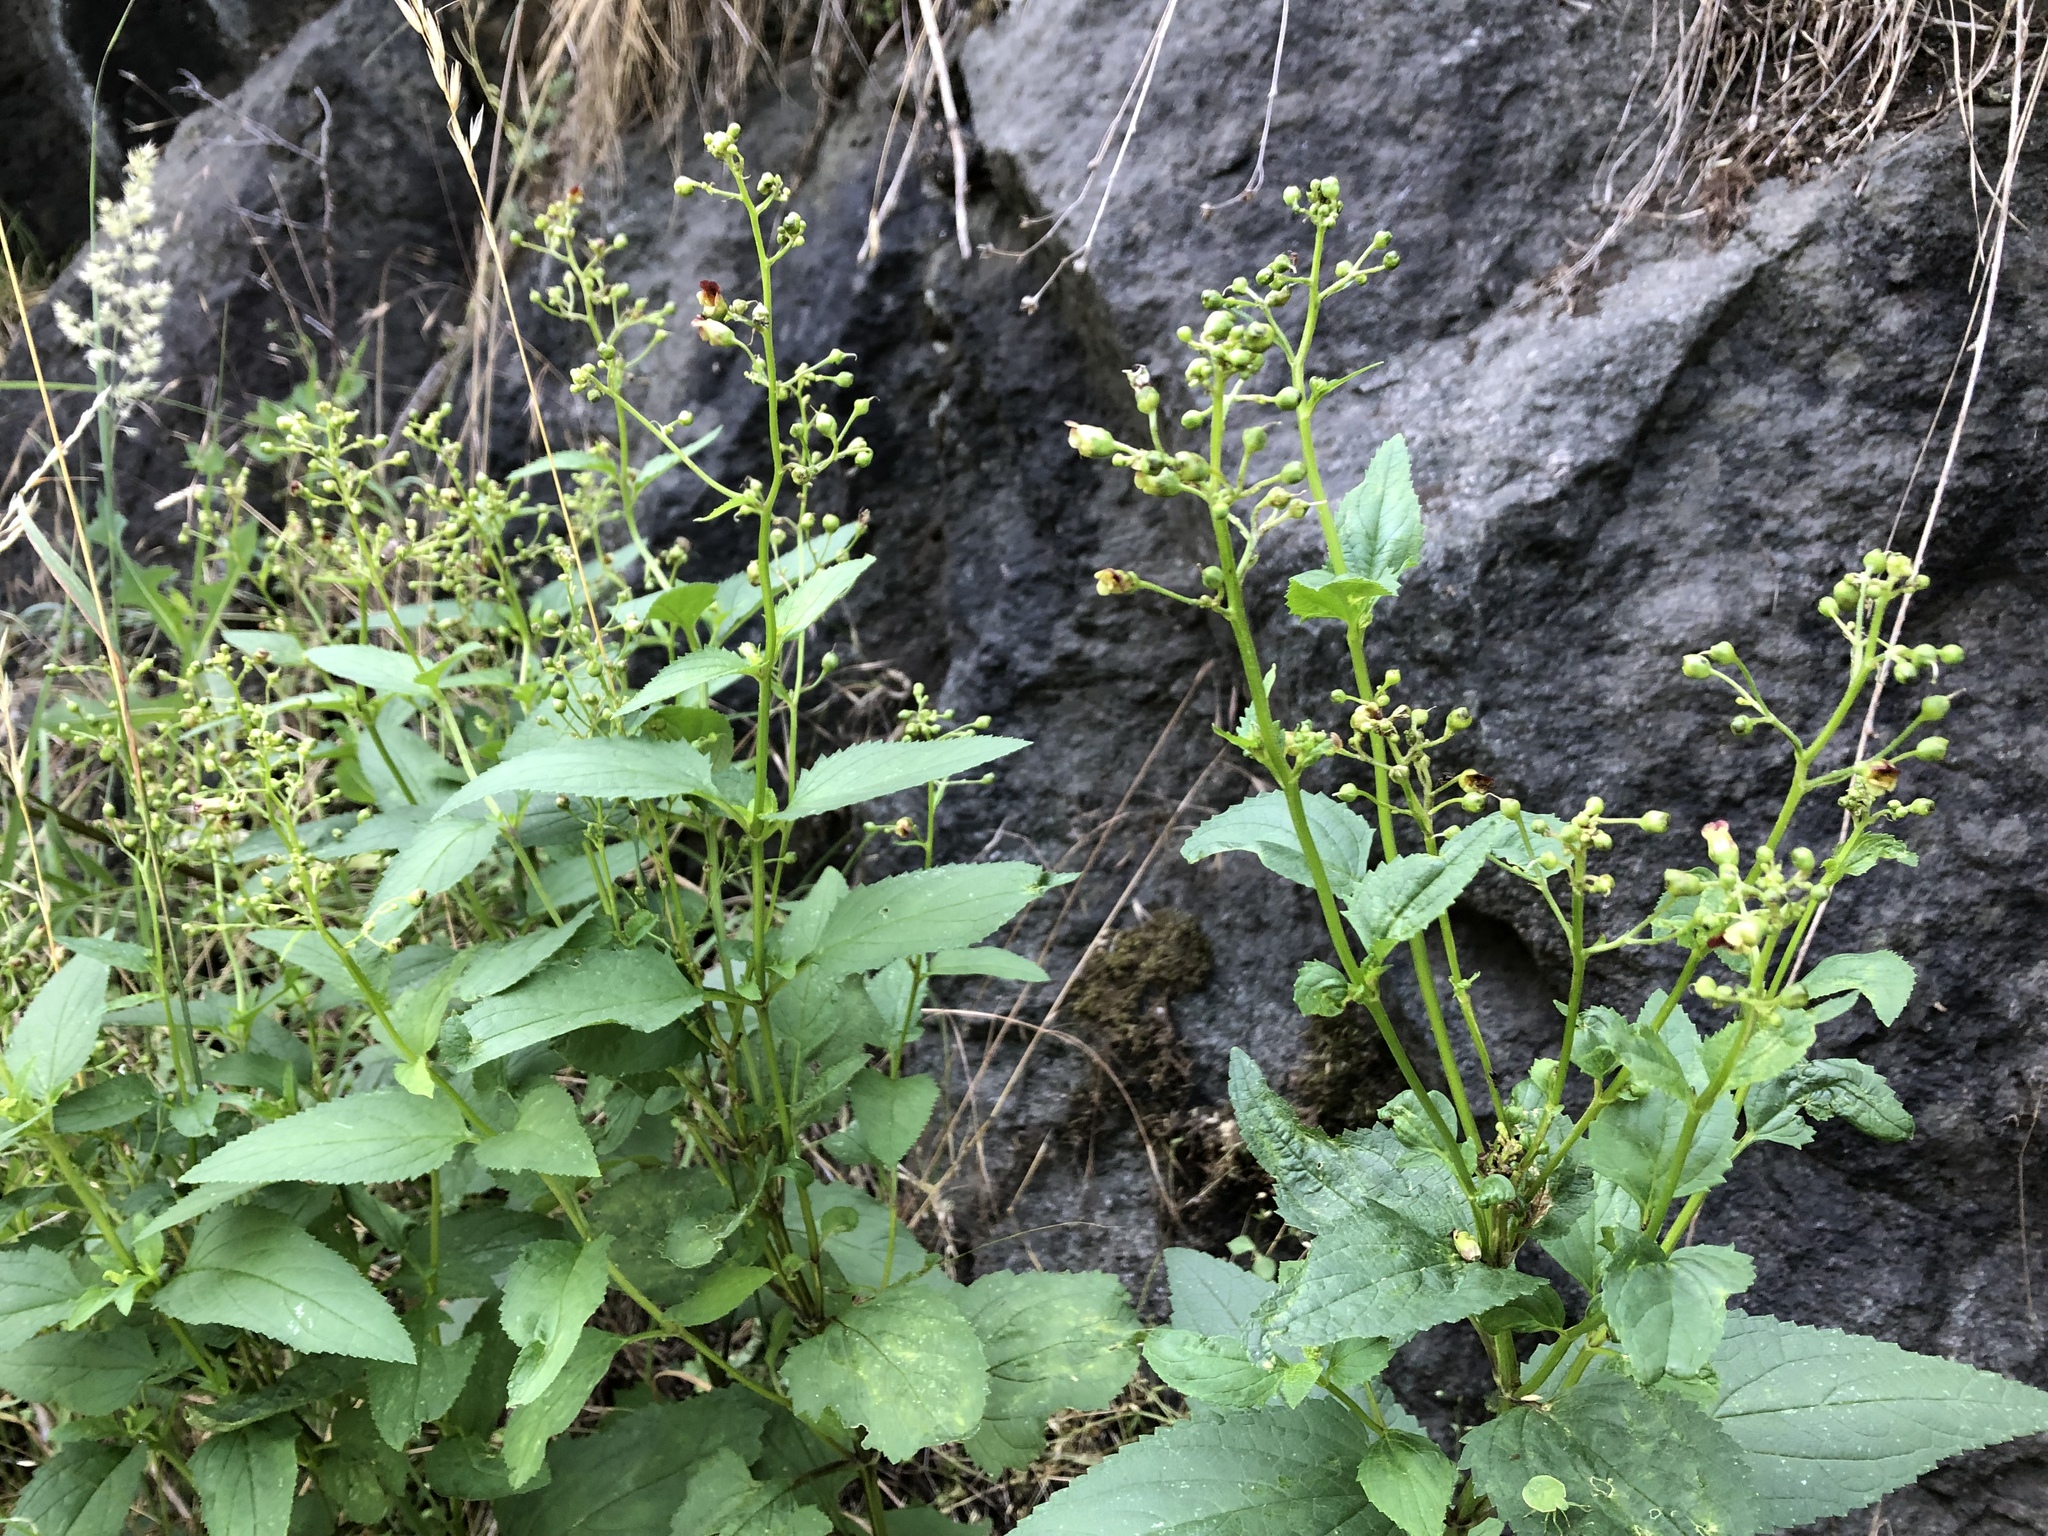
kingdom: Plantae
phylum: Tracheophyta
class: Magnoliopsida
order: Lamiales
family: Scrophulariaceae
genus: Scrophularia
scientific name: Scrophularia nodosa
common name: Common figwort
